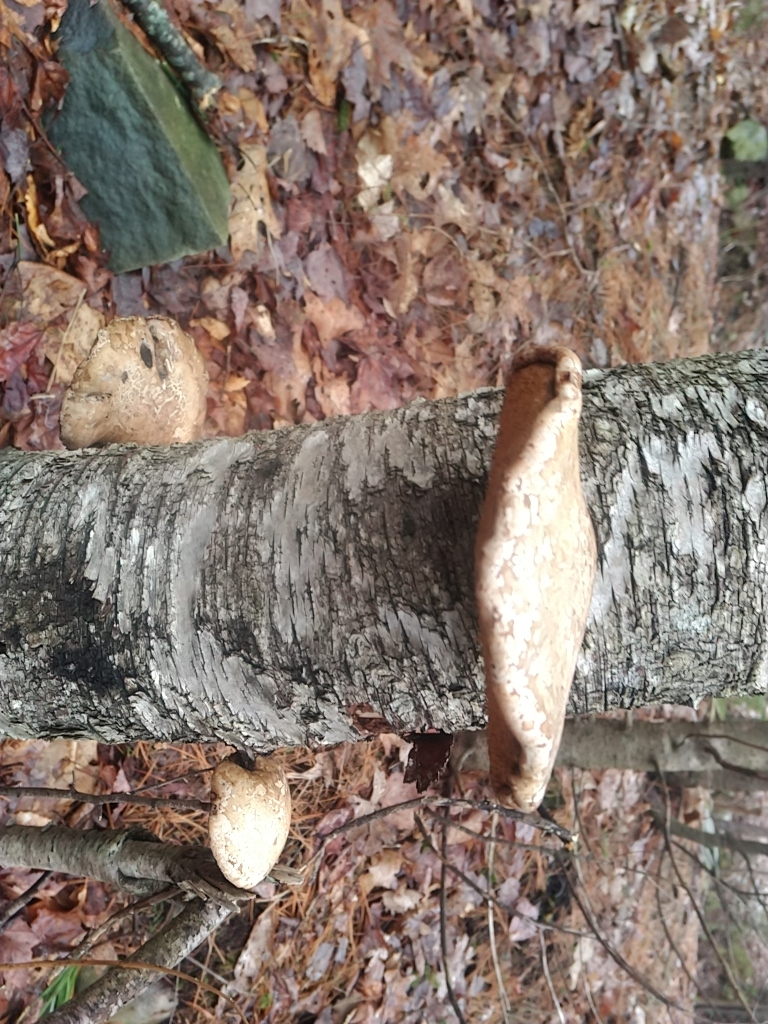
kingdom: Fungi
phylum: Basidiomycota
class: Agaricomycetes
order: Polyporales
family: Fomitopsidaceae
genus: Fomitopsis
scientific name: Fomitopsis betulina
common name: Birch polypore
